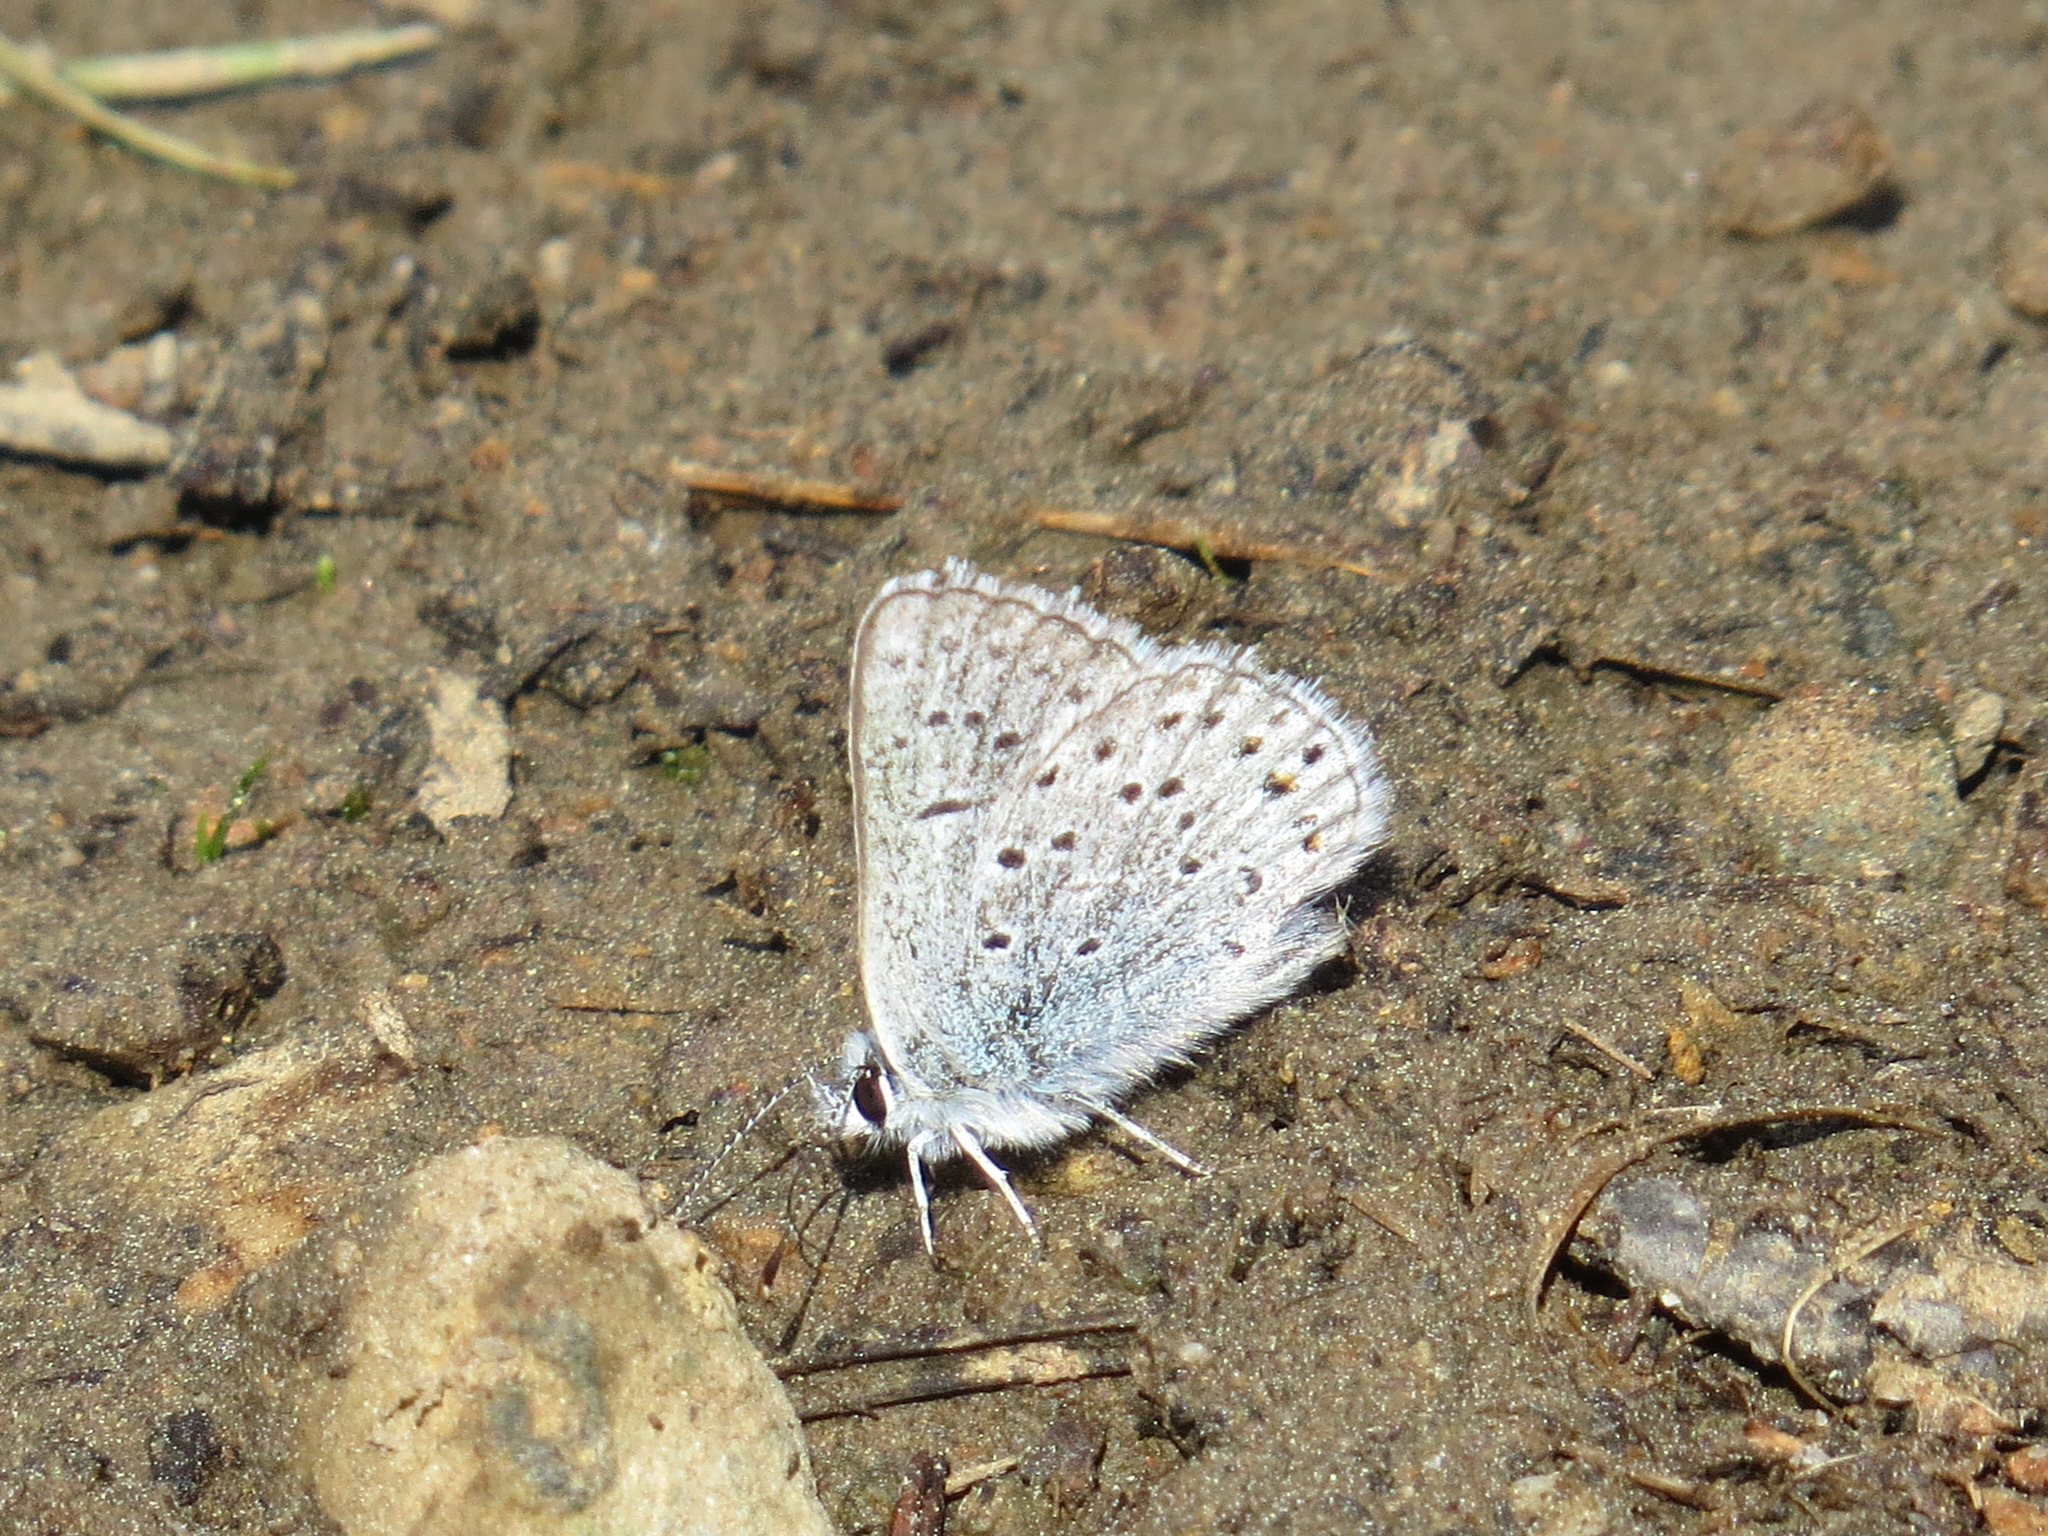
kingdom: Animalia
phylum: Arthropoda
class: Insecta
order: Lepidoptera
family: Lycaenidae
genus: Icaricia
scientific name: Icaricia saepiolus
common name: Greenish blue
